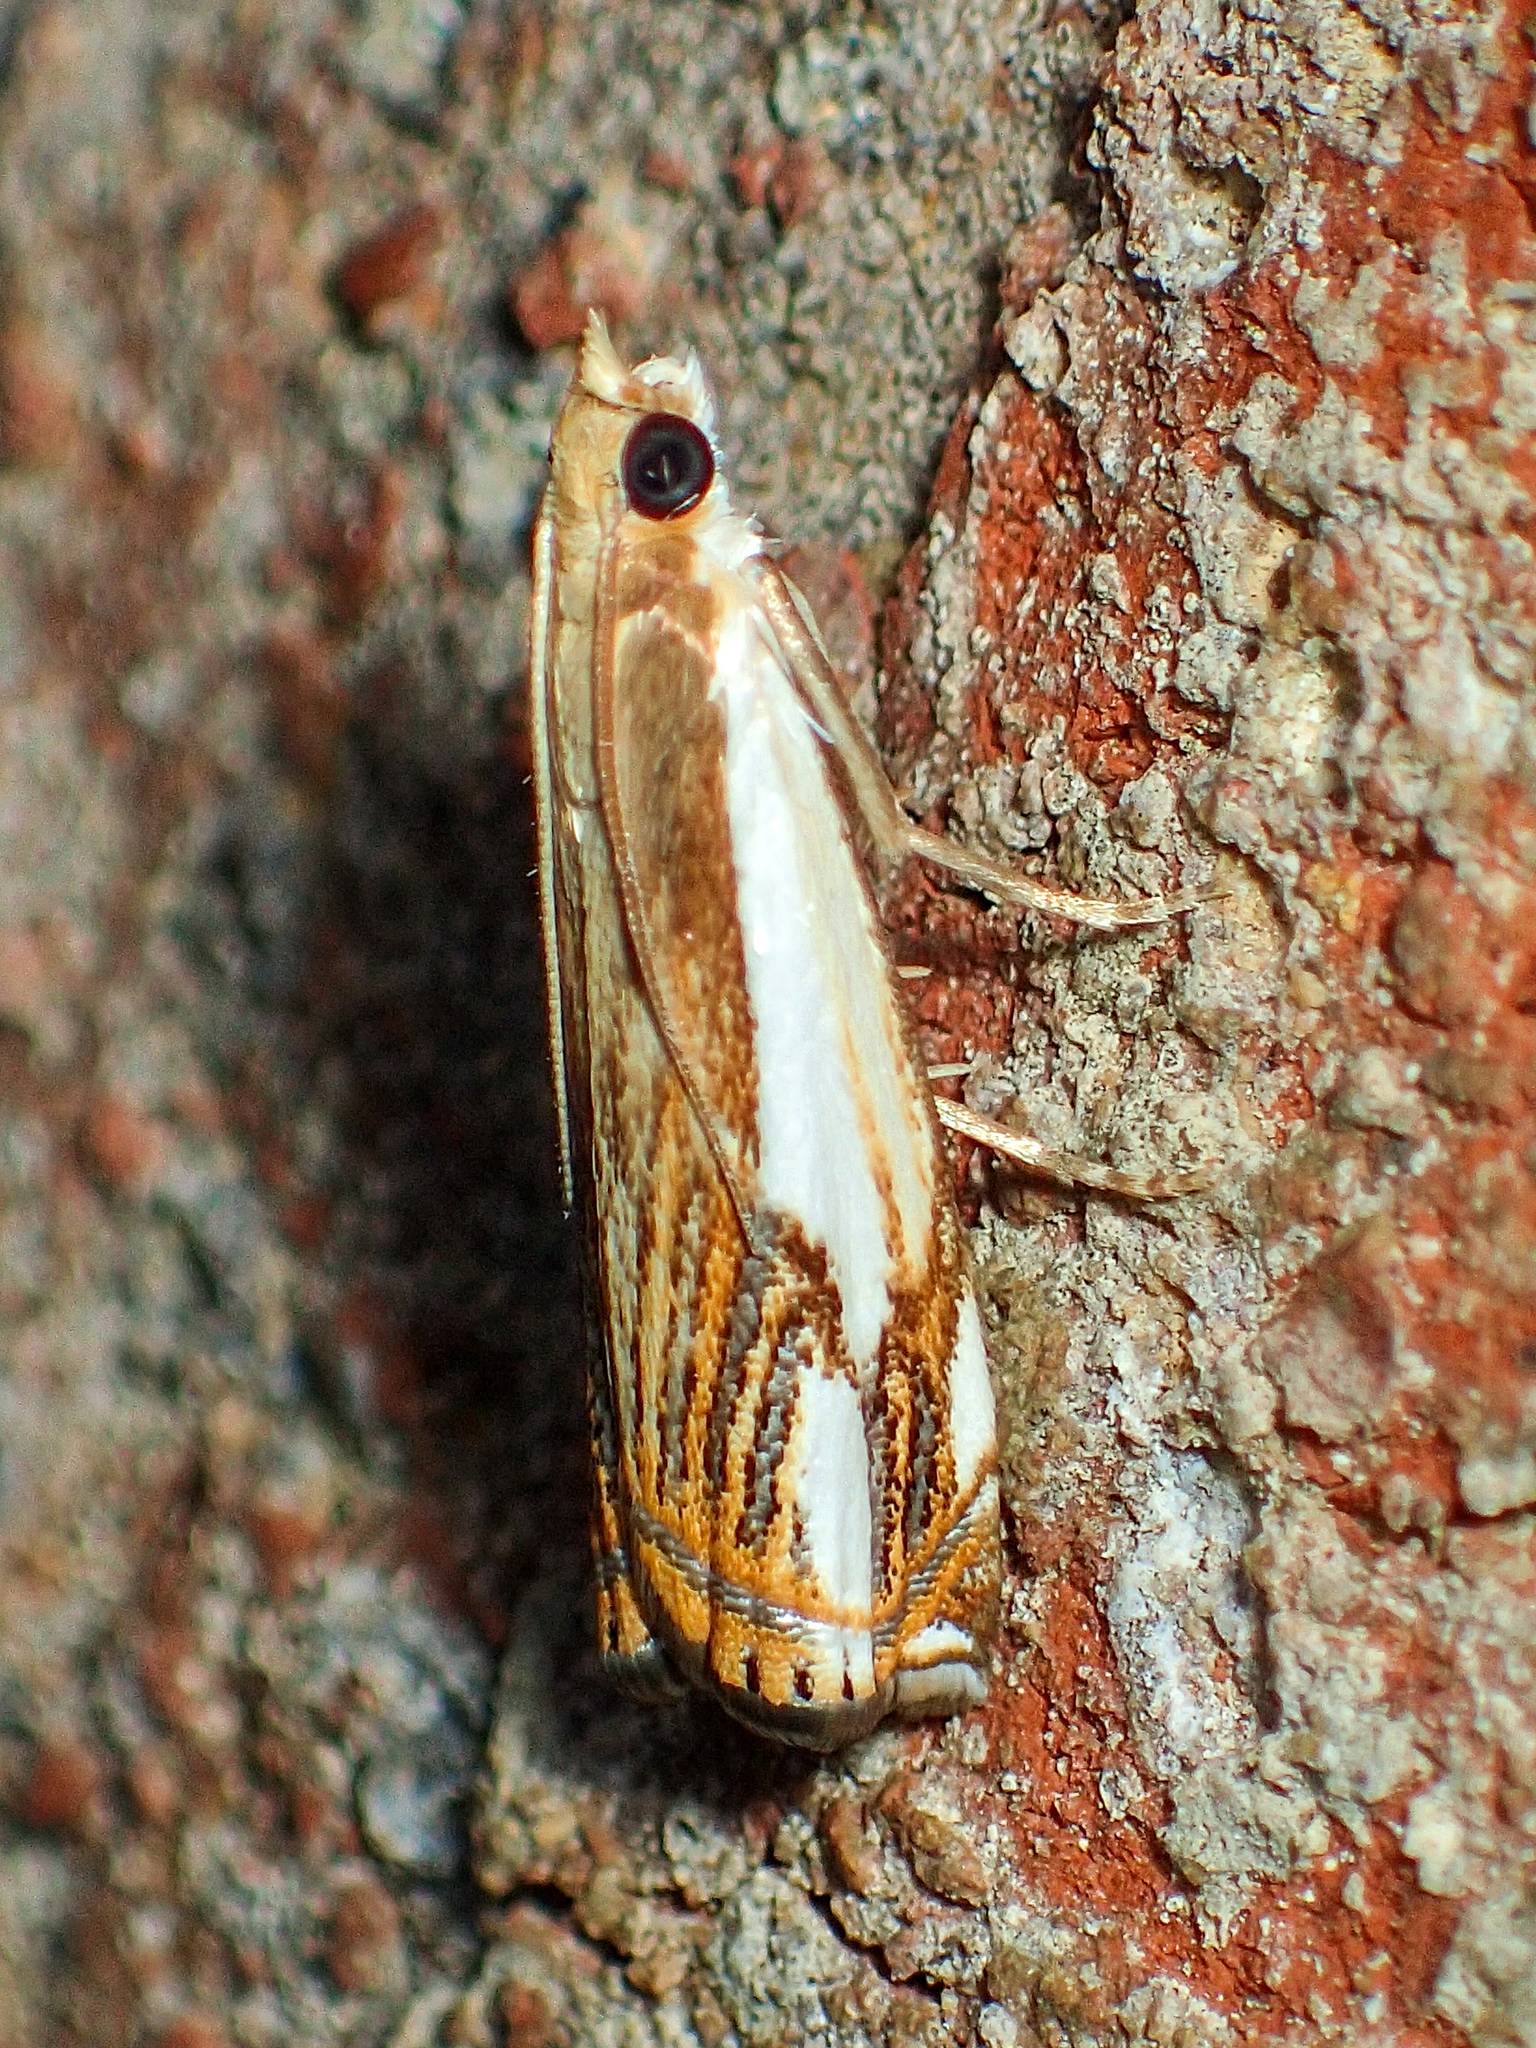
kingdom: Animalia
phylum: Arthropoda
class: Insecta
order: Lepidoptera
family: Crambidae
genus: Crambus
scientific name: Crambus agitatellus
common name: Double-banded grass-veneer
